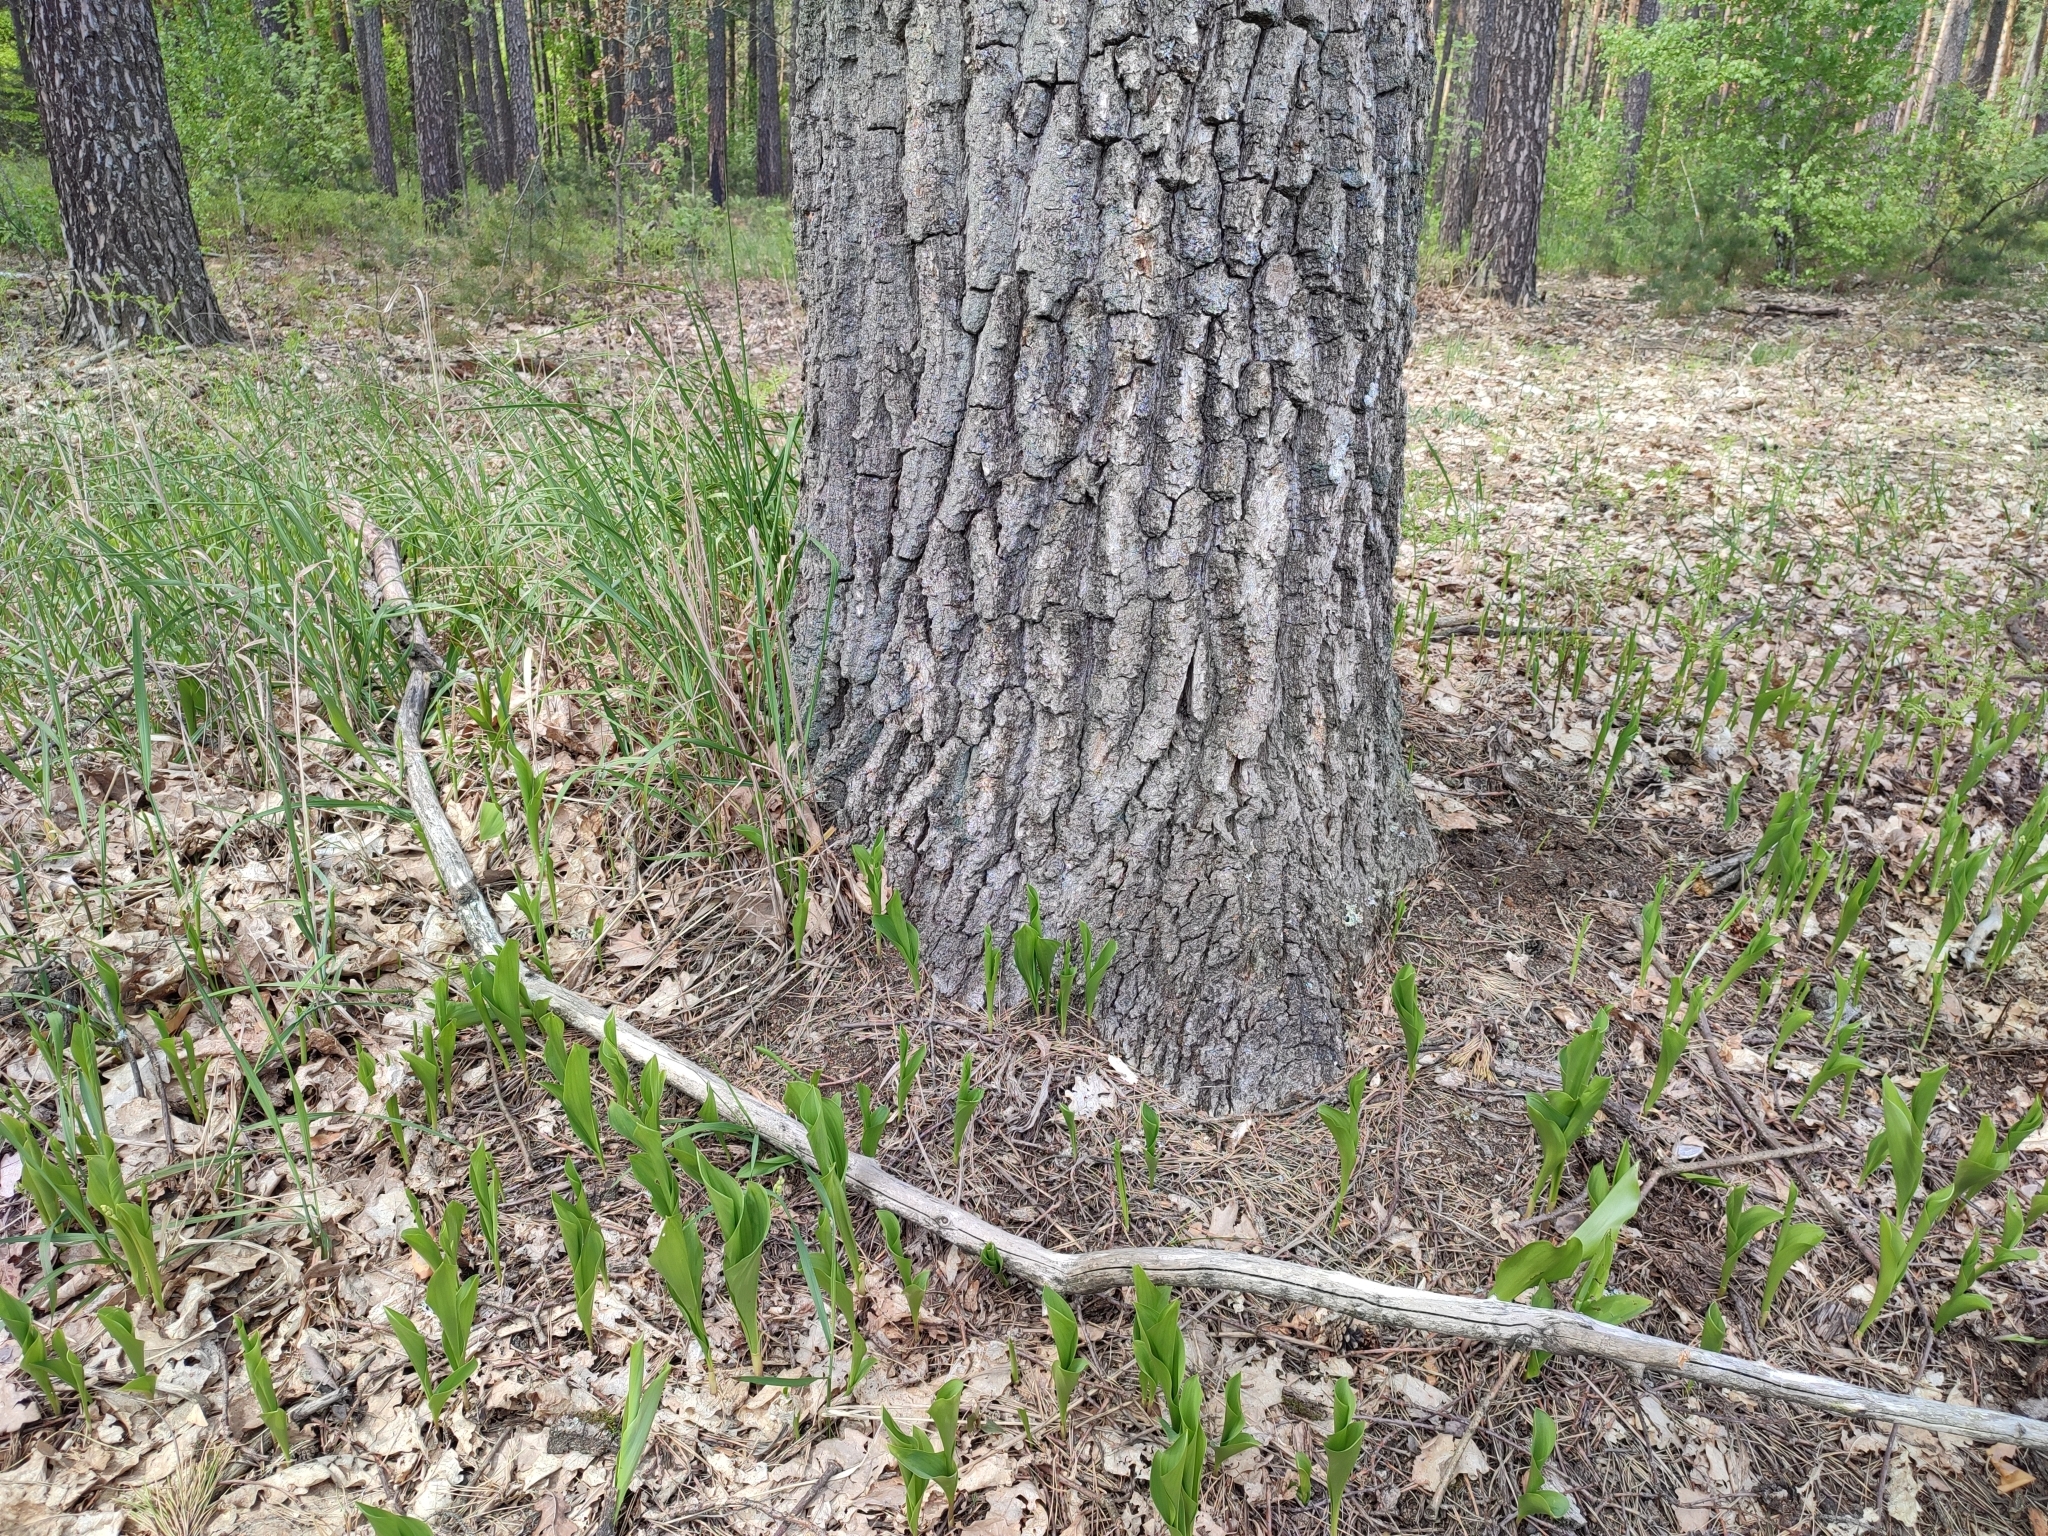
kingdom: Plantae
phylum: Tracheophyta
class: Liliopsida
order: Asparagales
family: Asparagaceae
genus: Convallaria
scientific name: Convallaria majalis
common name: Lily-of-the-valley
